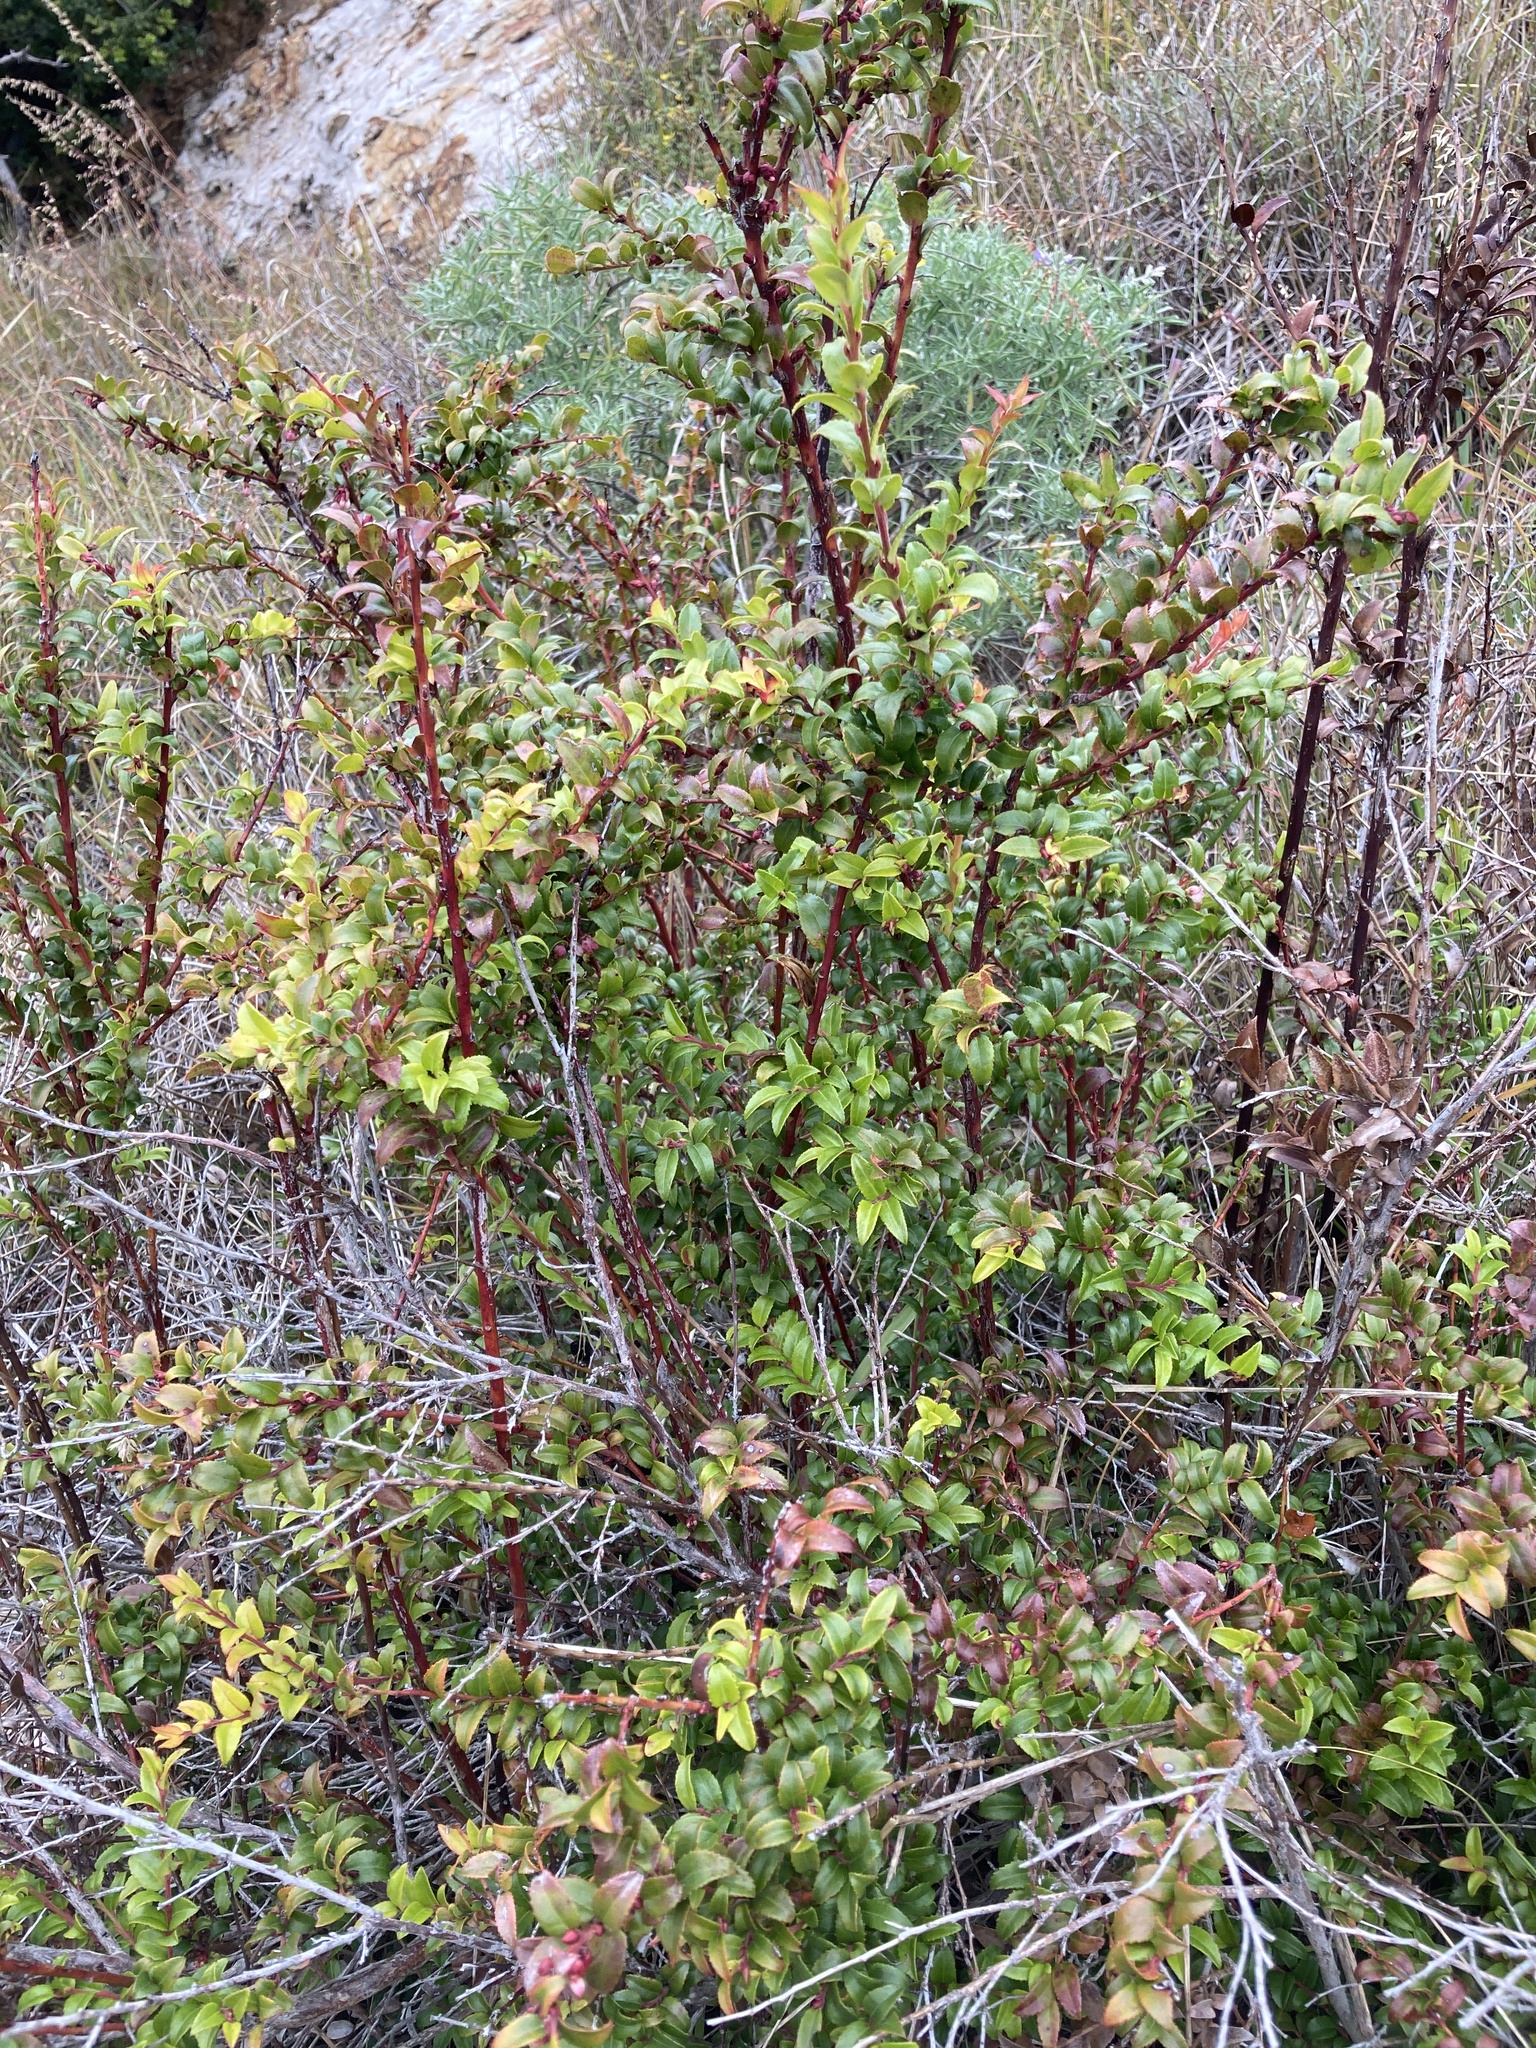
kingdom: Plantae
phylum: Tracheophyta
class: Magnoliopsida
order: Ericales
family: Ericaceae
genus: Vaccinium
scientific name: Vaccinium ovatum
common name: California-huckleberry
